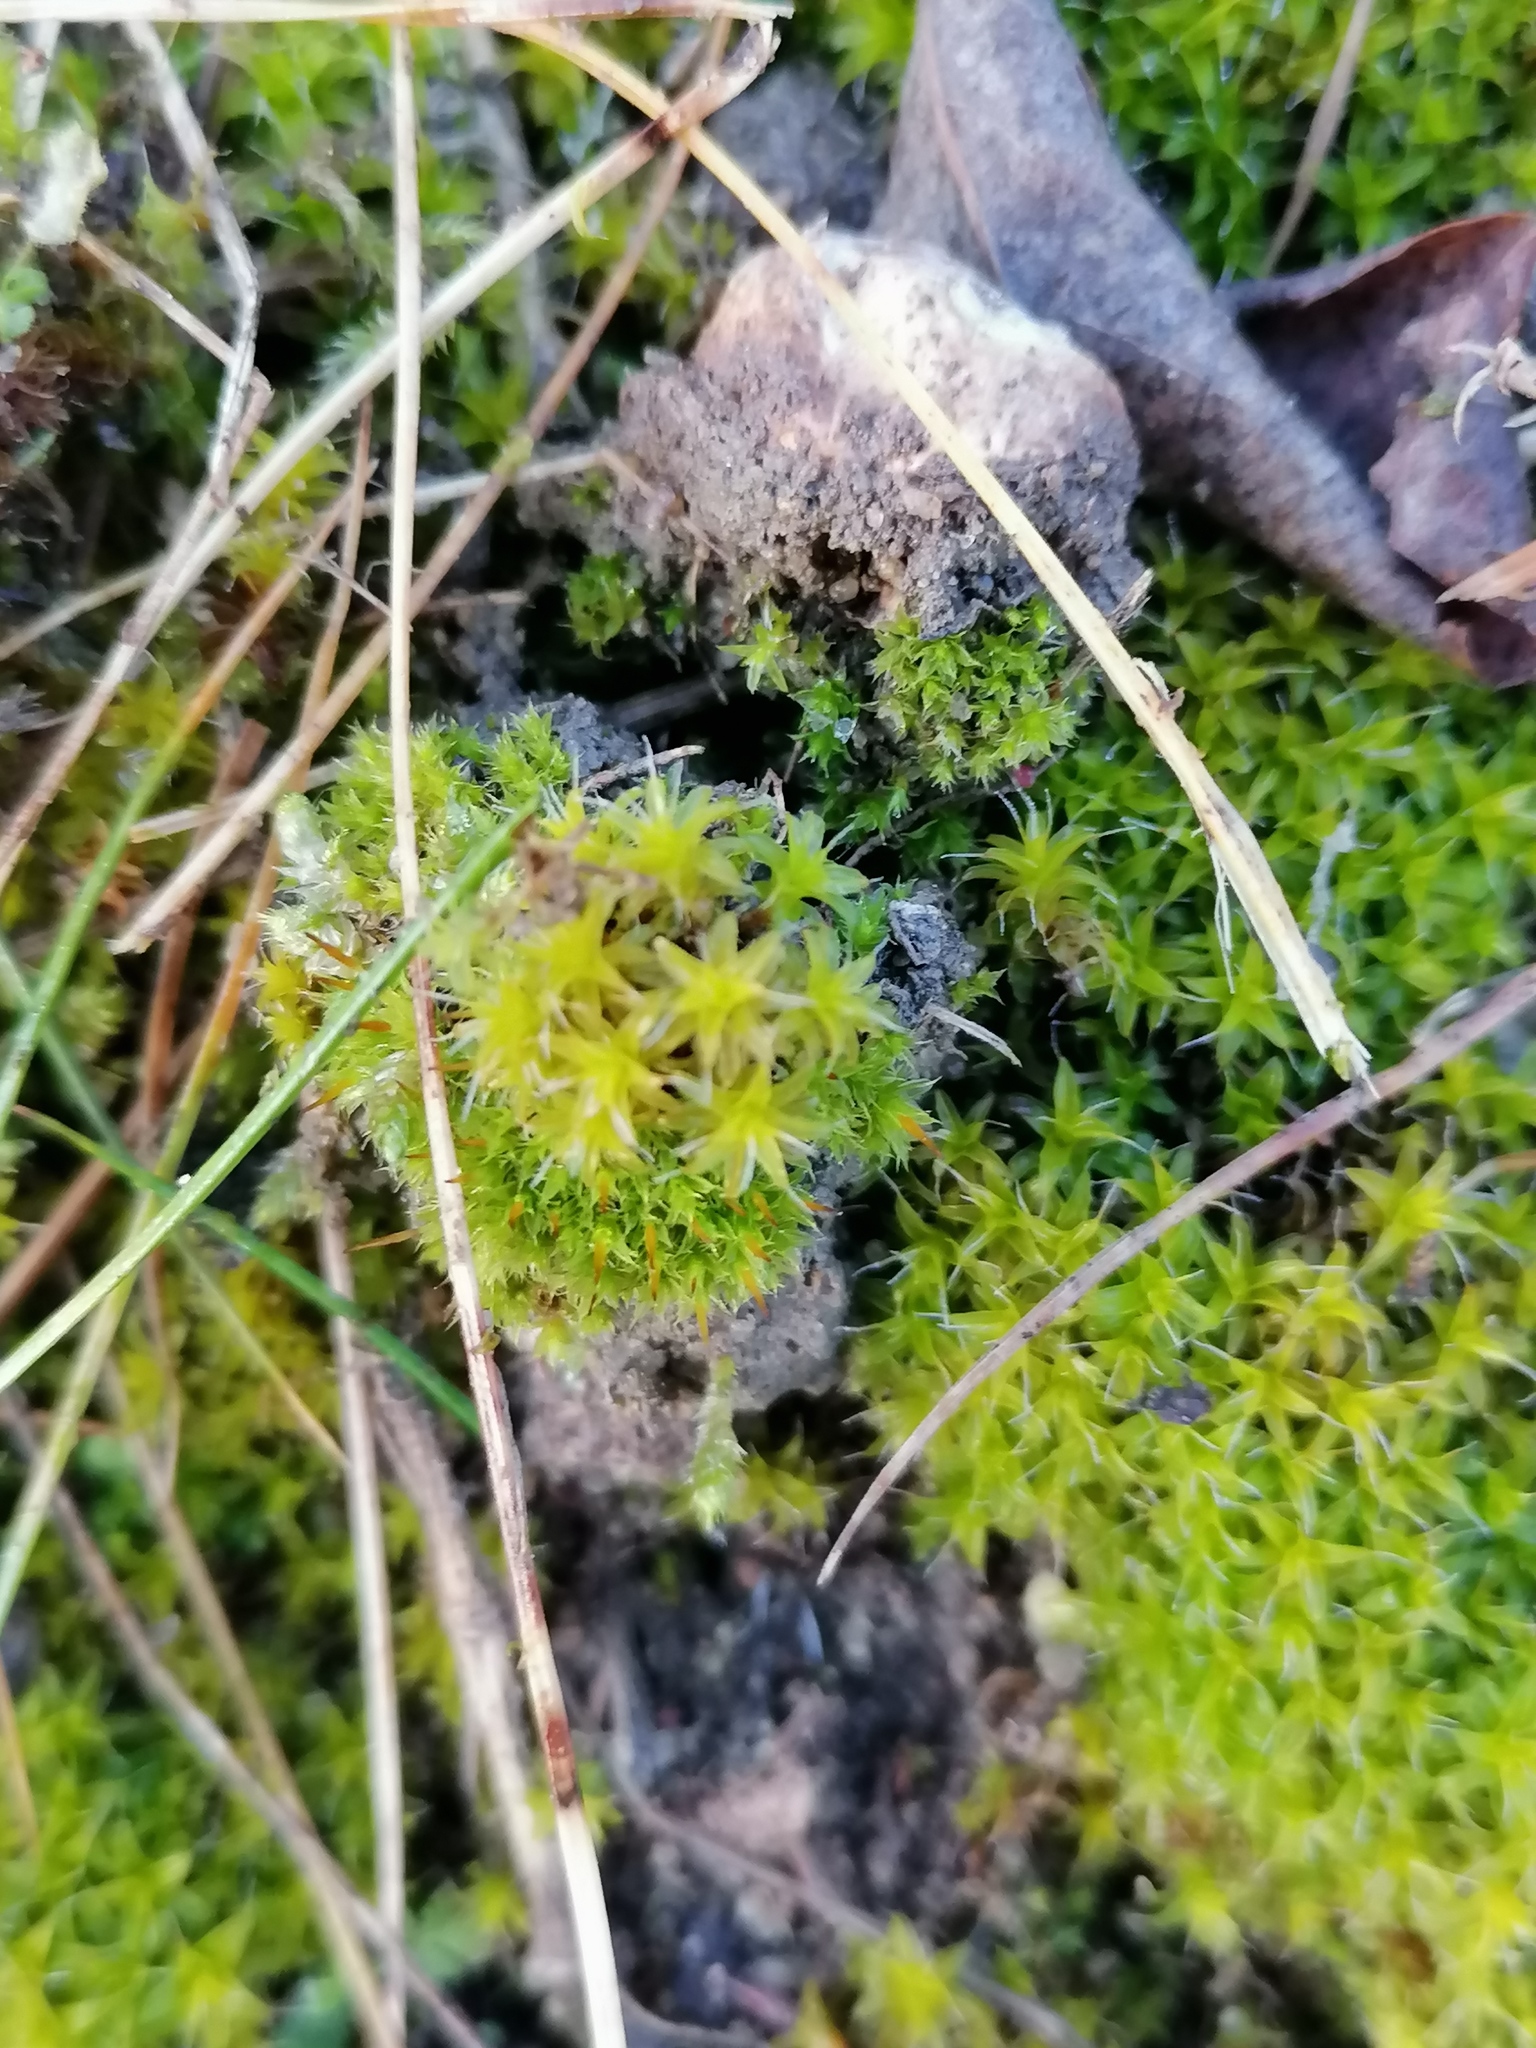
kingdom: Plantae
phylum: Bryophyta
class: Bryopsida
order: Pottiales
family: Pottiaceae
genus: Syntrichia
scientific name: Syntrichia ruralis
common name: Sidewalk screw moss
